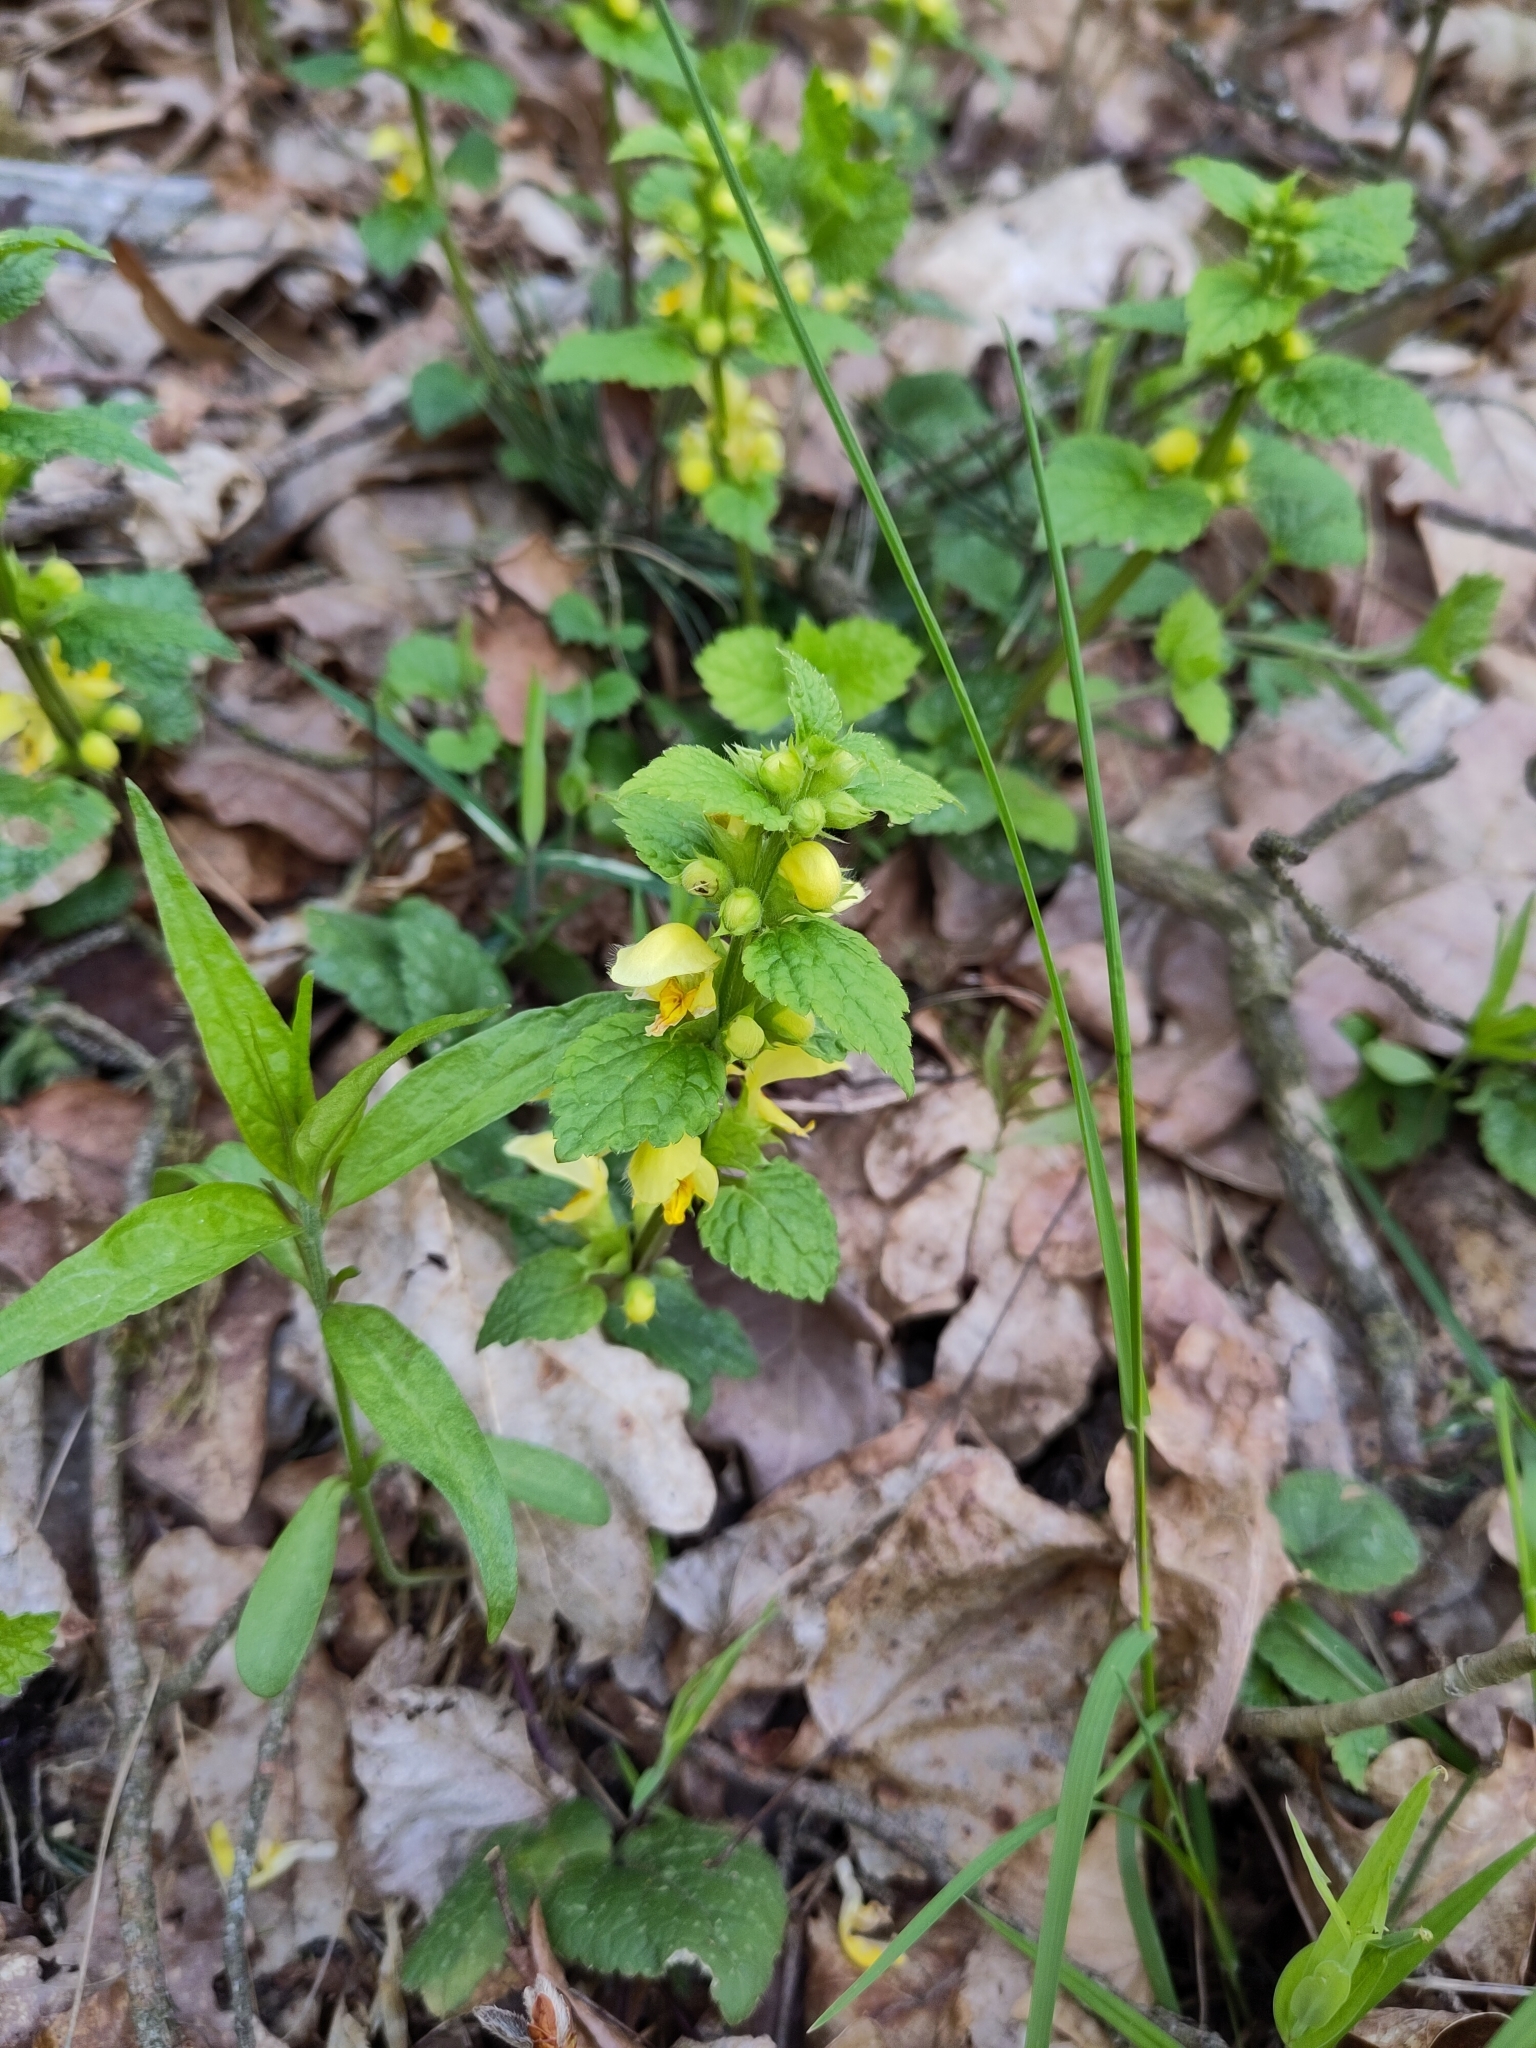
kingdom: Plantae
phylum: Tracheophyta
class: Magnoliopsida
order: Lamiales
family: Lamiaceae
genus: Lamium
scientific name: Lamium galeobdolon
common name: Yellow archangel
